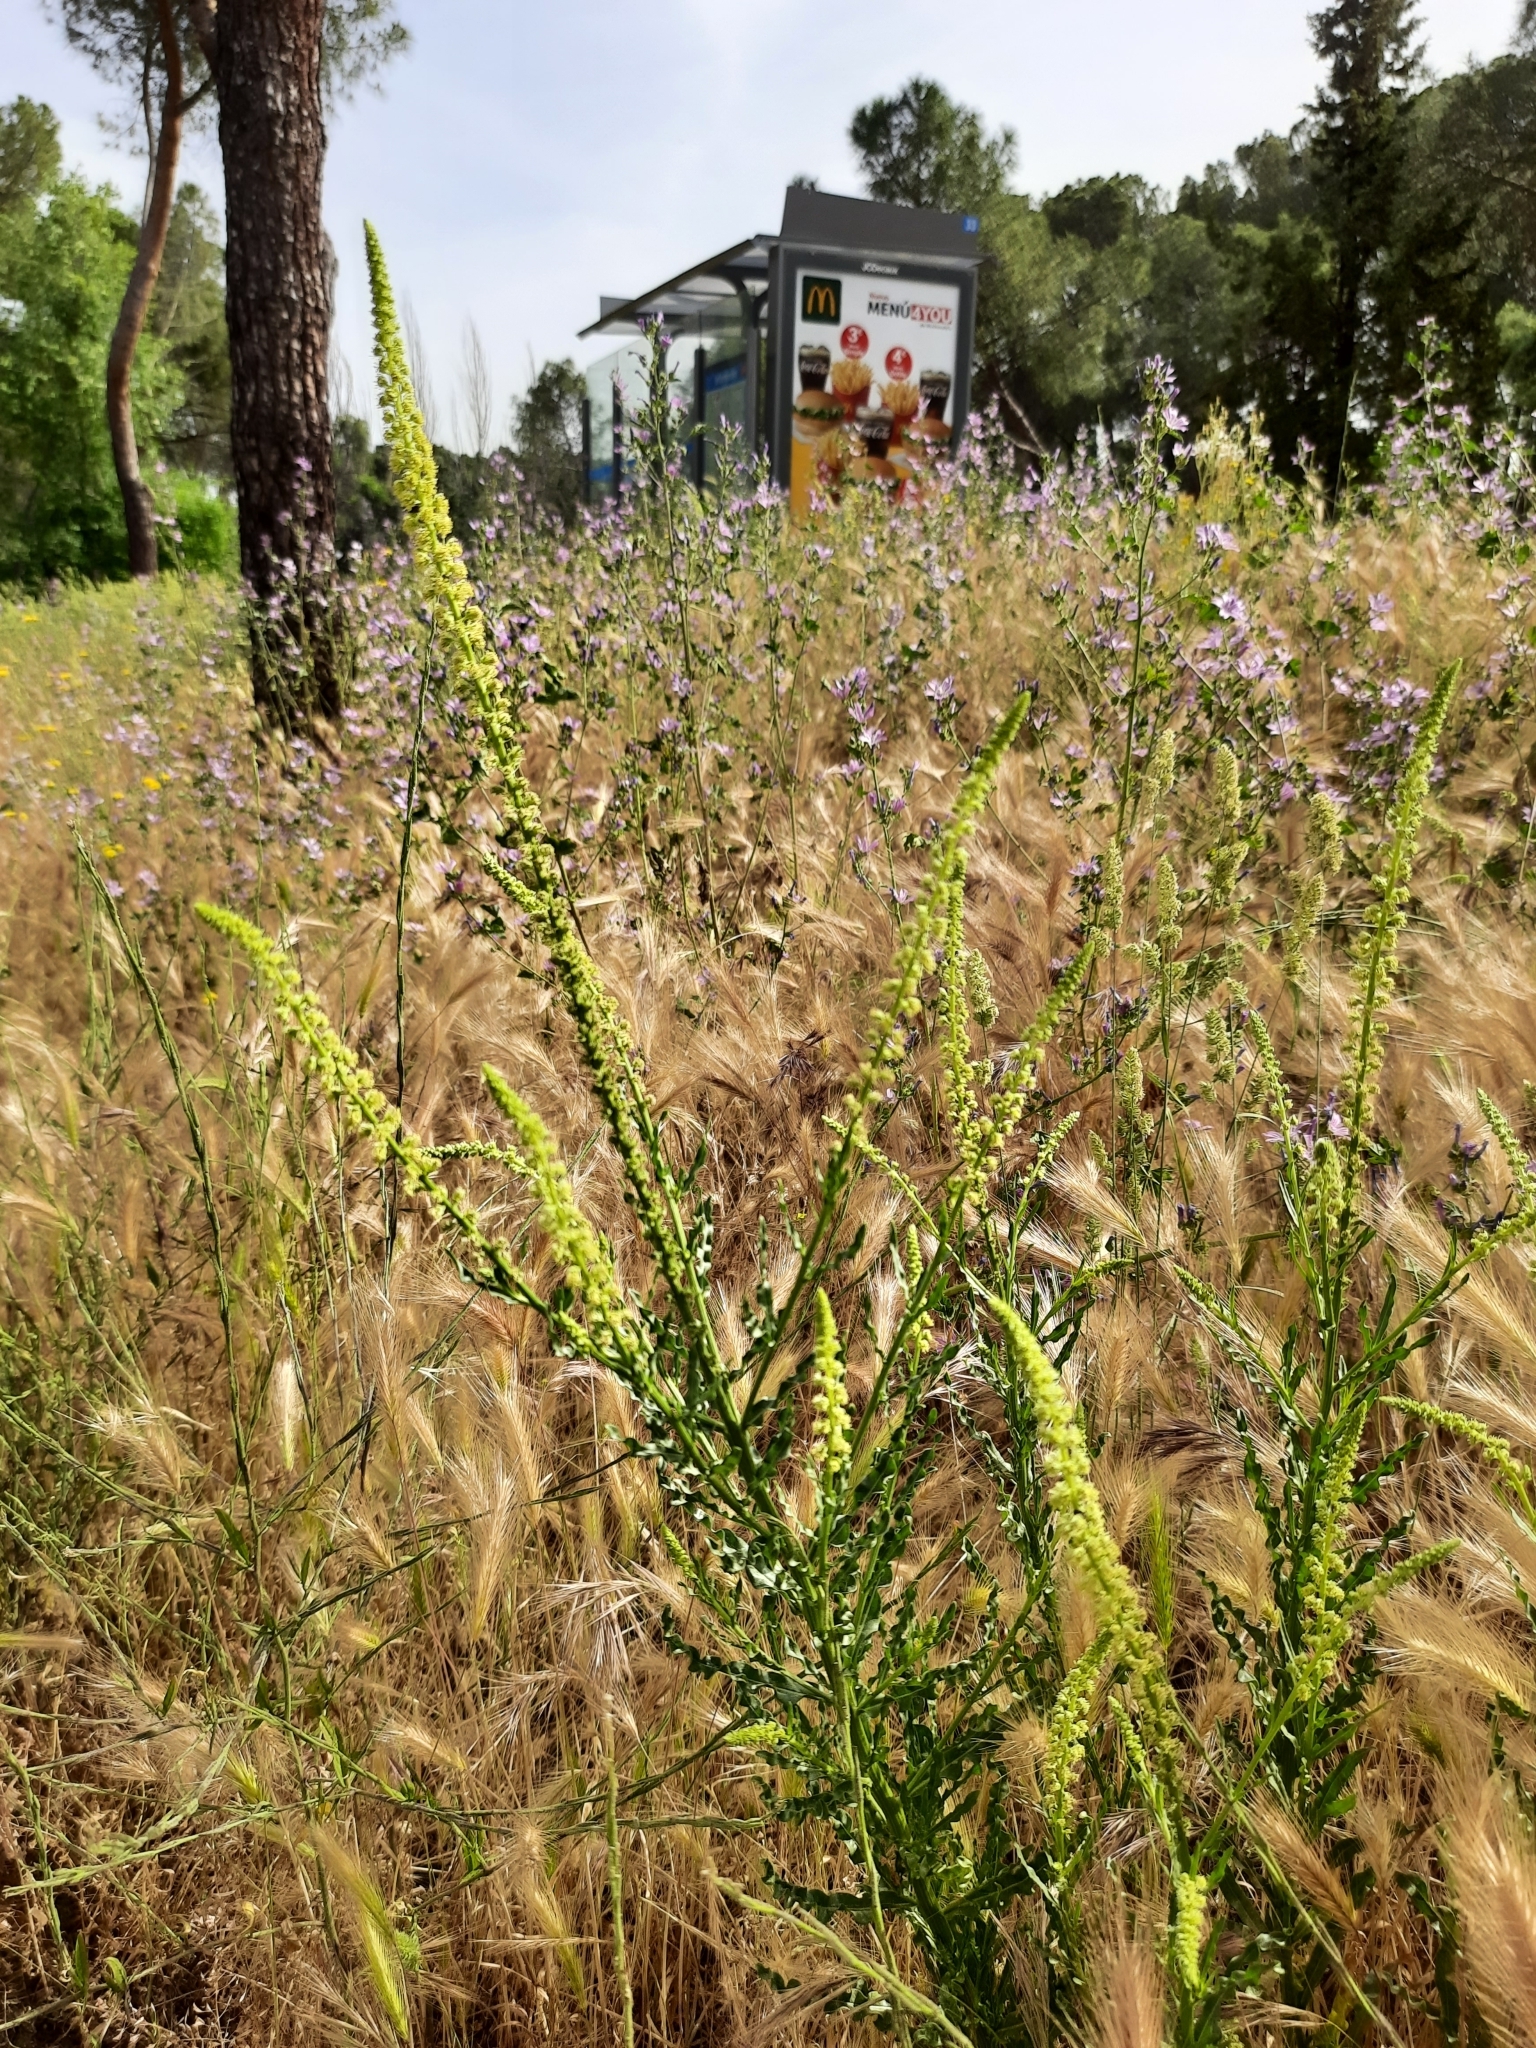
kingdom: Plantae
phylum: Tracheophyta
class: Magnoliopsida
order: Brassicales
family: Resedaceae
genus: Reseda
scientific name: Reseda luteola
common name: Weld
